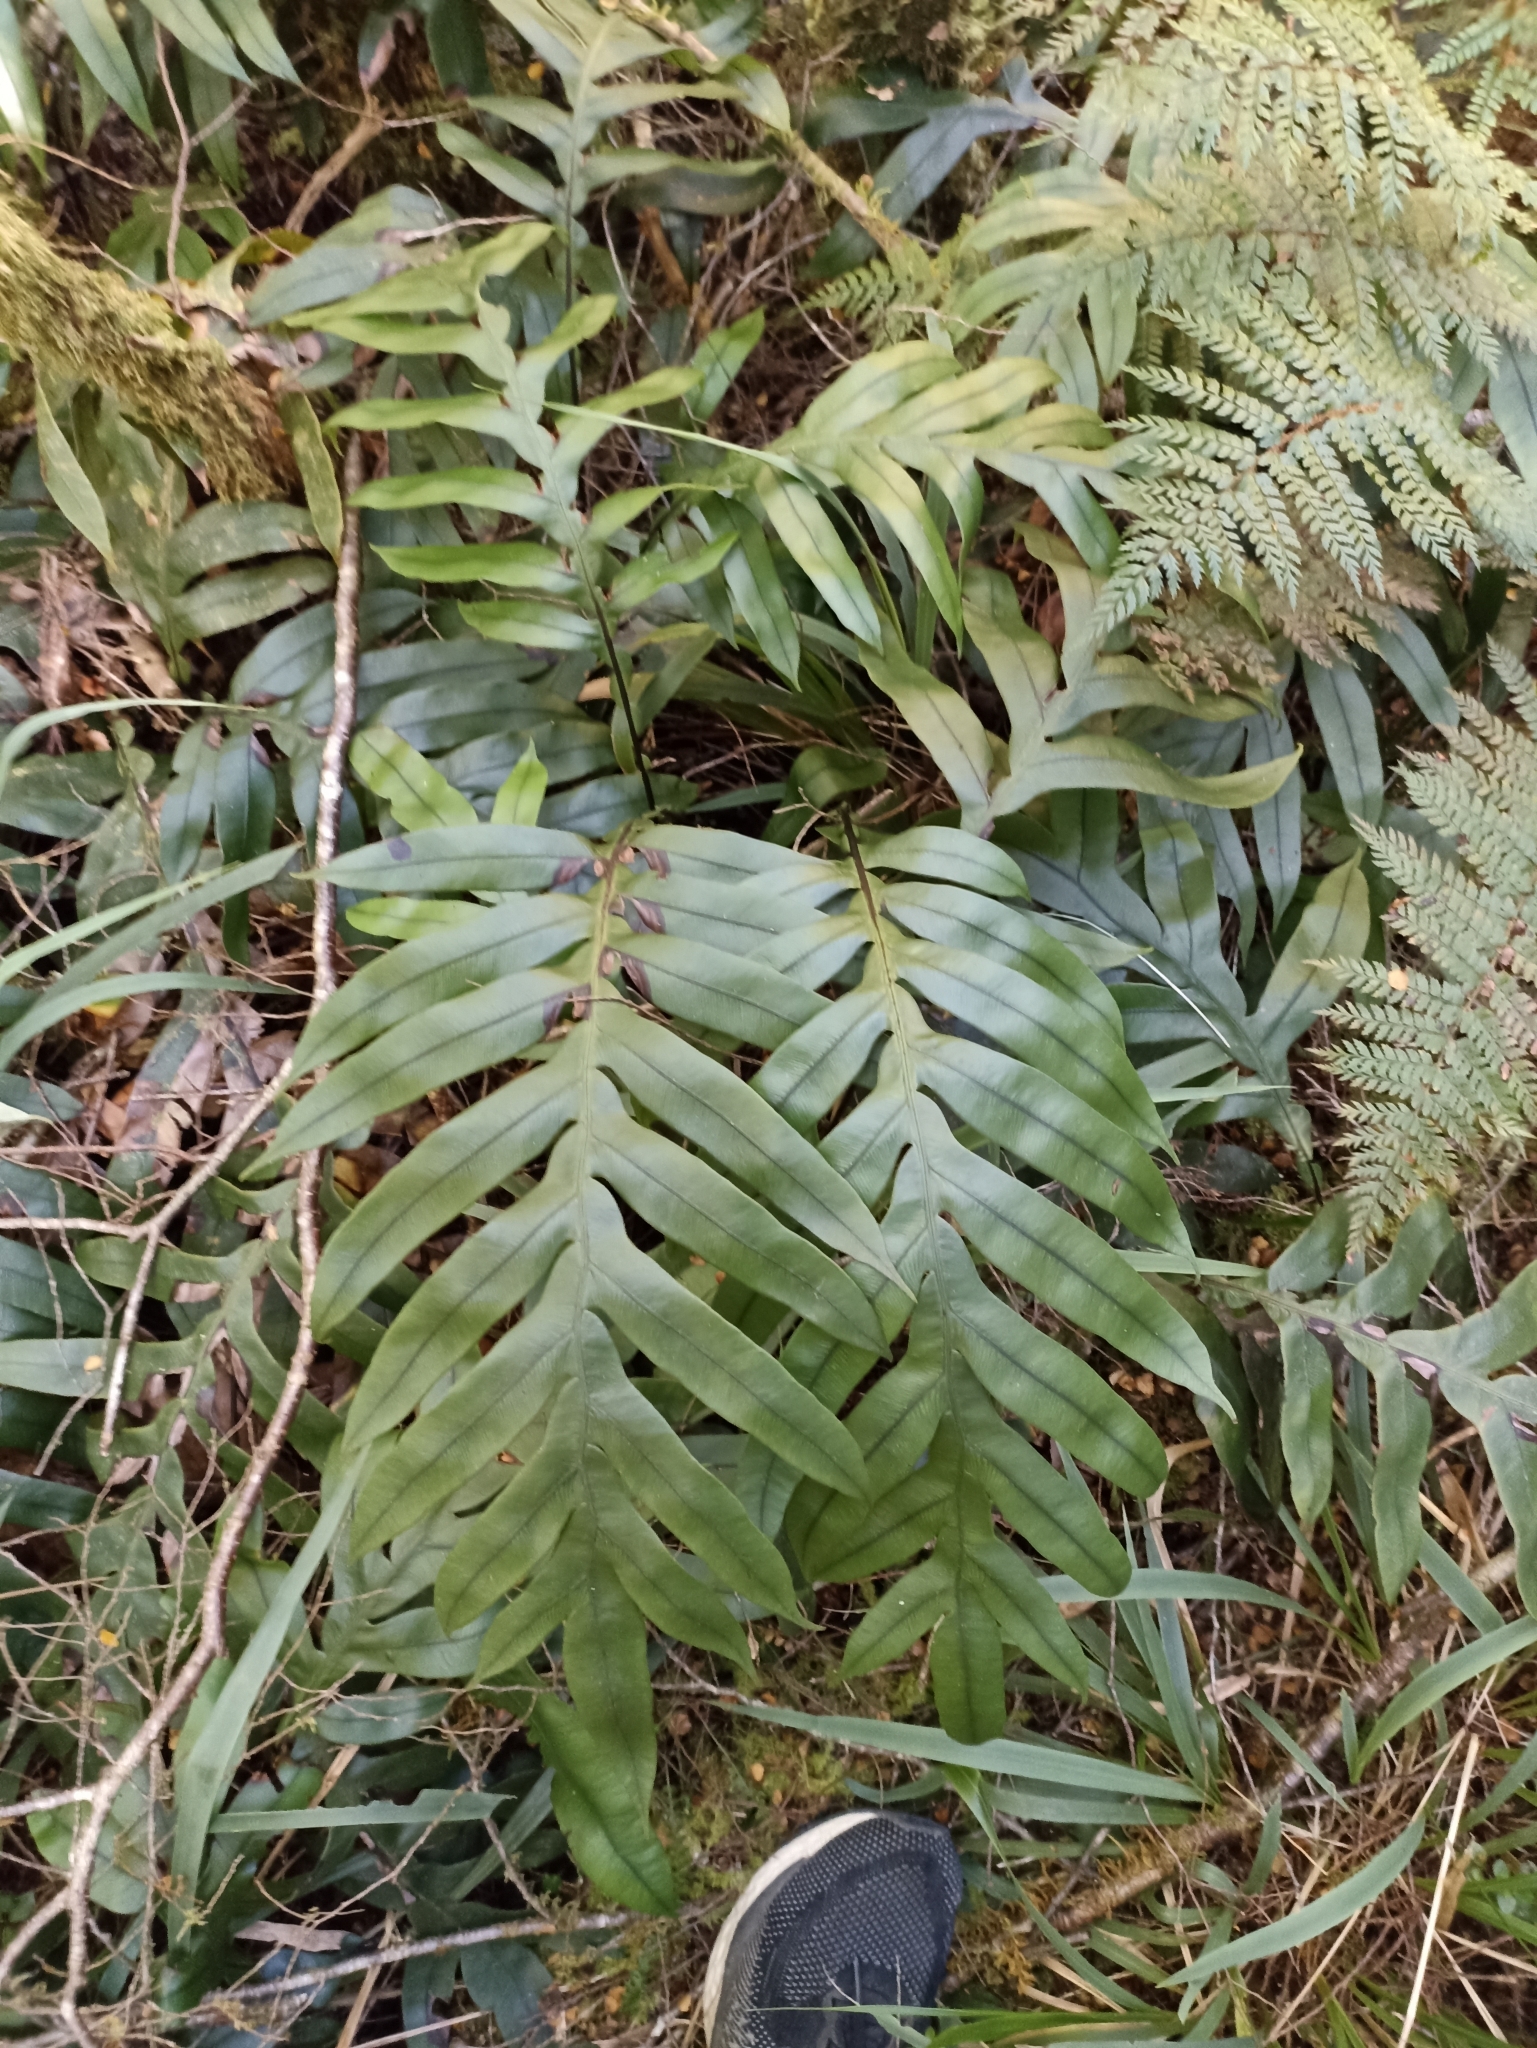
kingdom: Plantae
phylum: Tracheophyta
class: Polypodiopsida
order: Polypodiales
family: Blechnaceae
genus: Austroblechnum
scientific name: Austroblechnum colensoi
